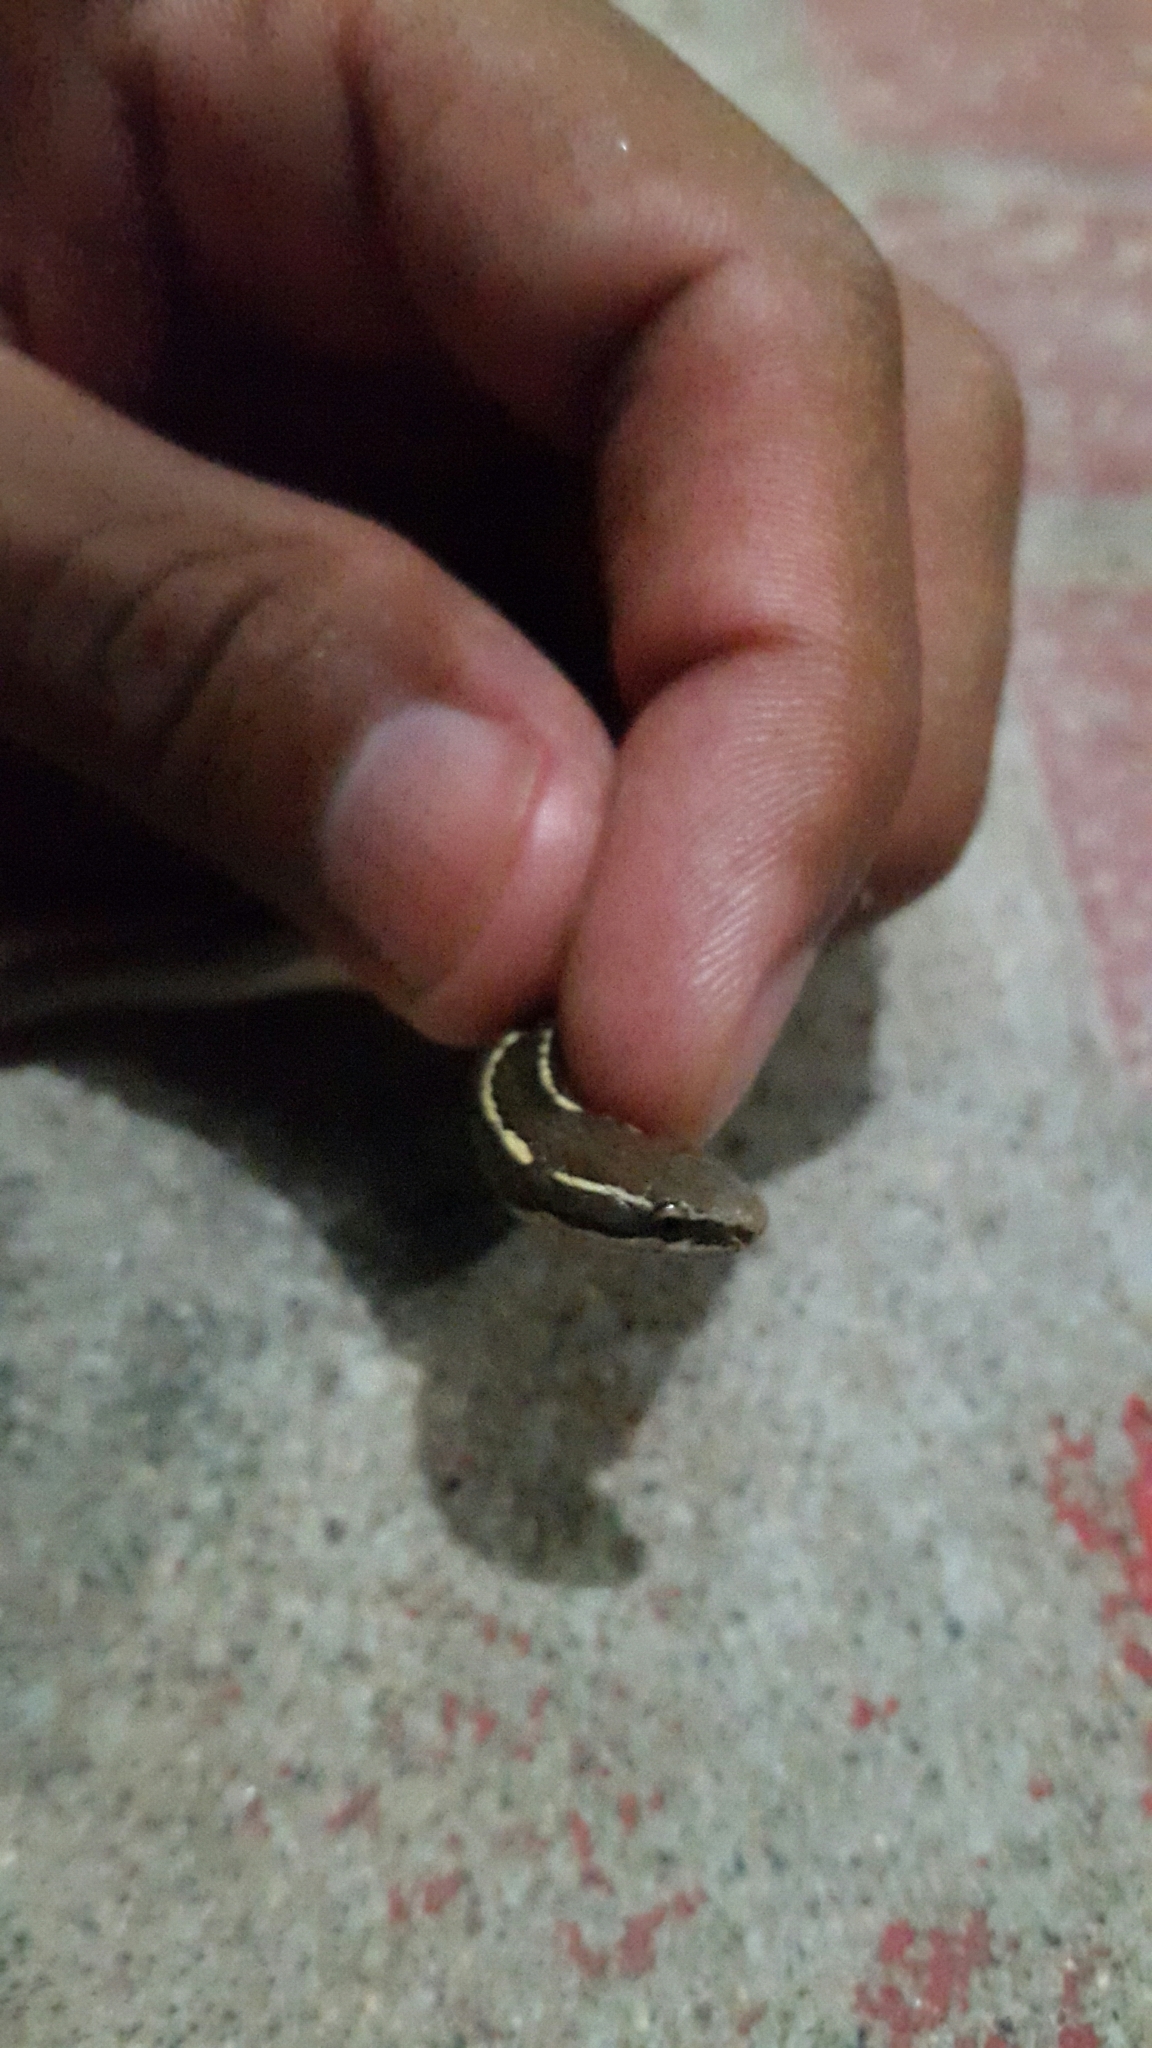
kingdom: Animalia
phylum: Chordata
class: Squamata
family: Colubridae
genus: Coniophanes
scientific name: Coniophanes imperialis
